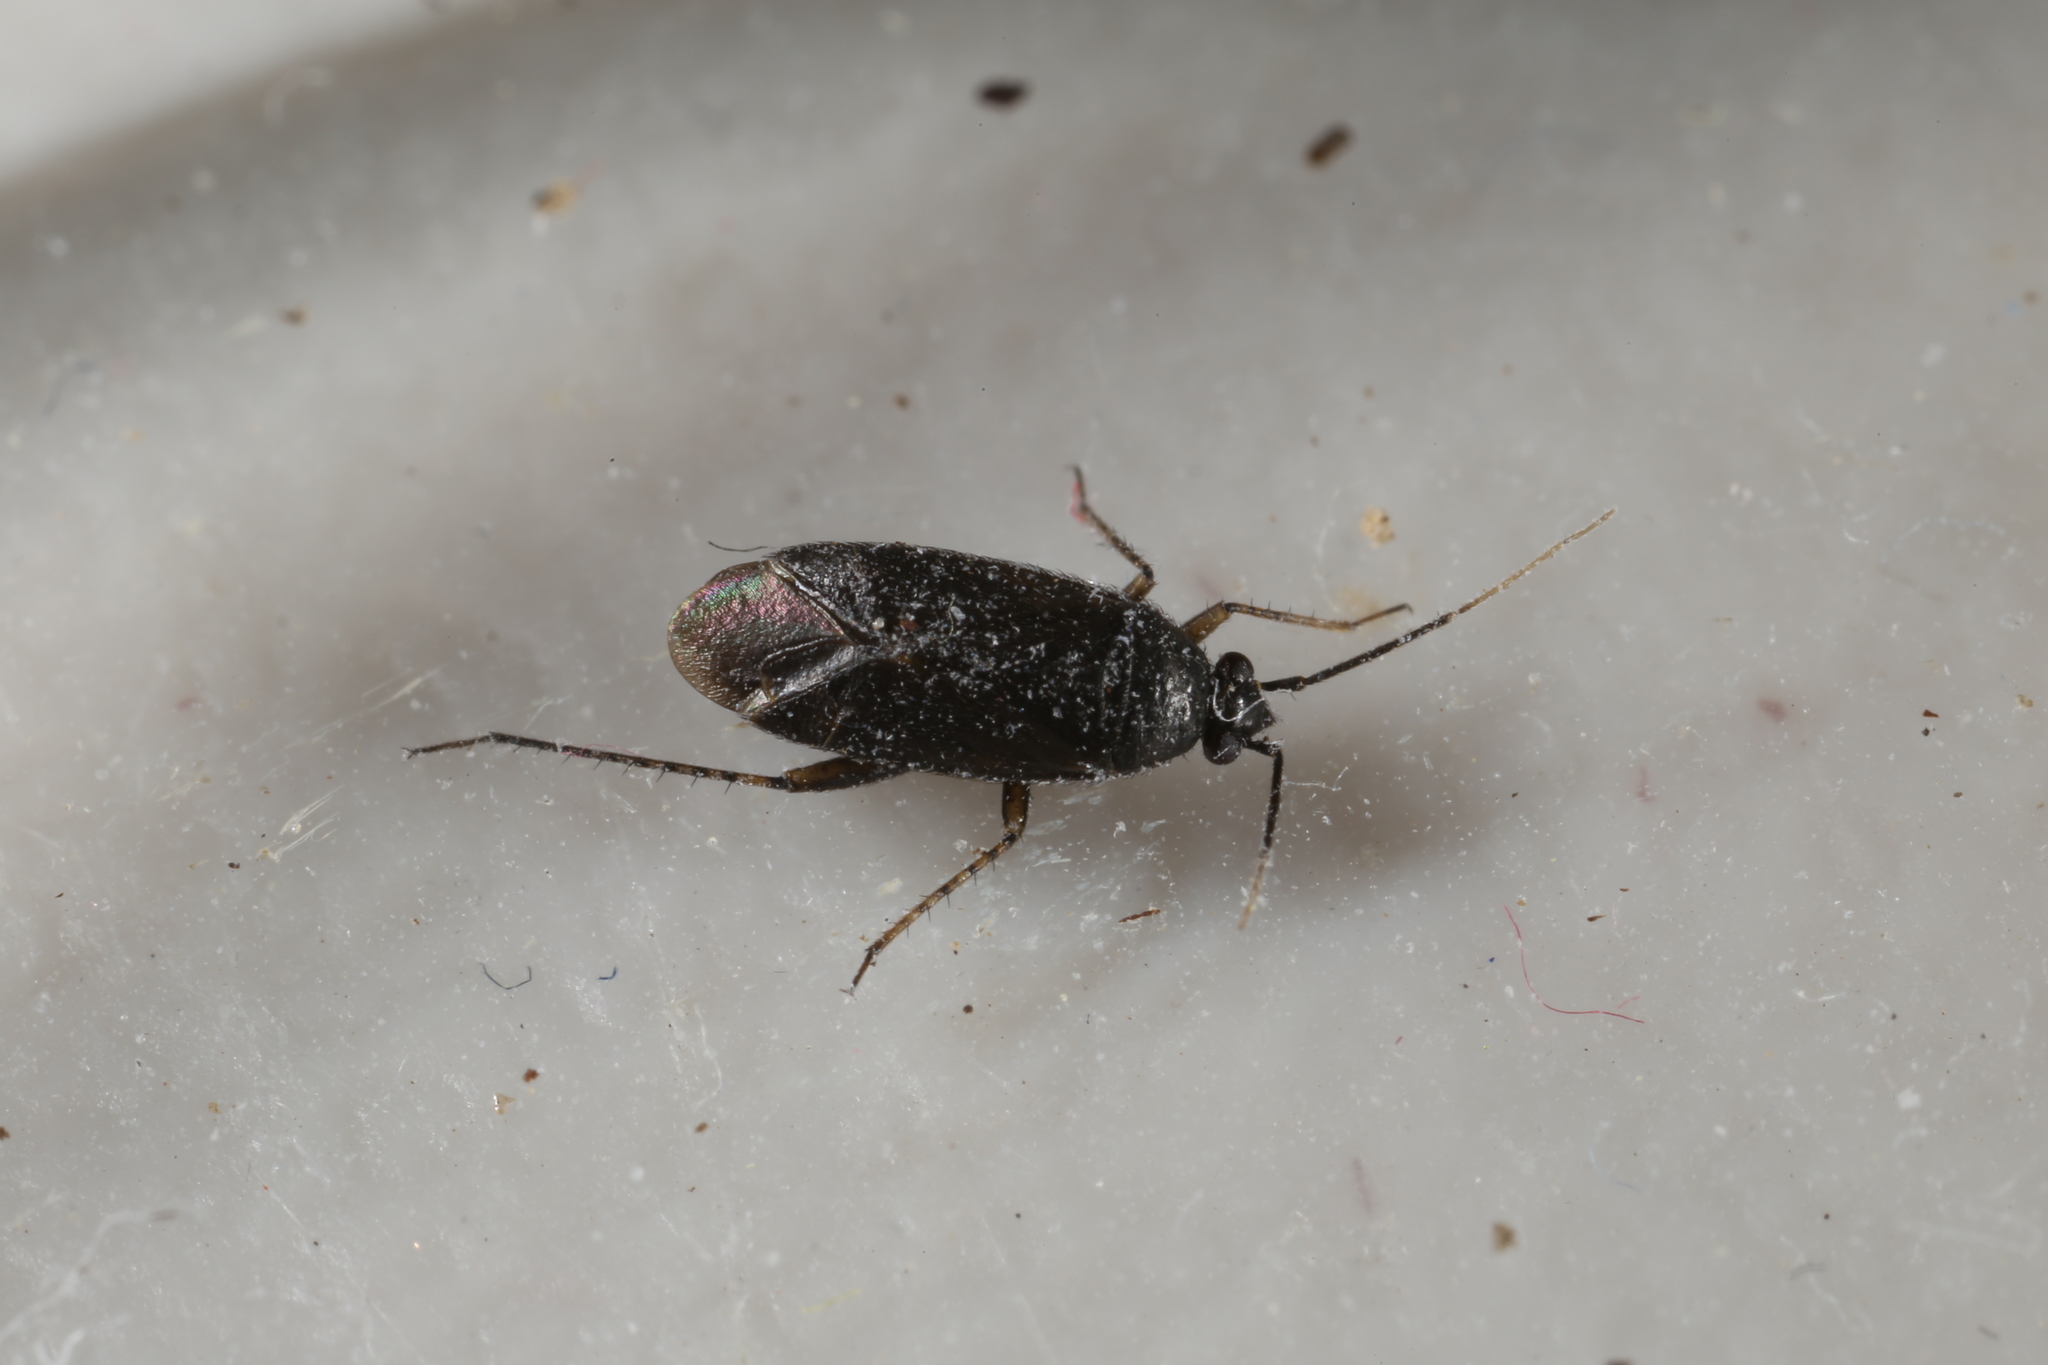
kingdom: Animalia
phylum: Arthropoda
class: Insecta
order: Hemiptera
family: Miridae
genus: Plagiognathus
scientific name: Plagiognathus arbustorum
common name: Plant bug
